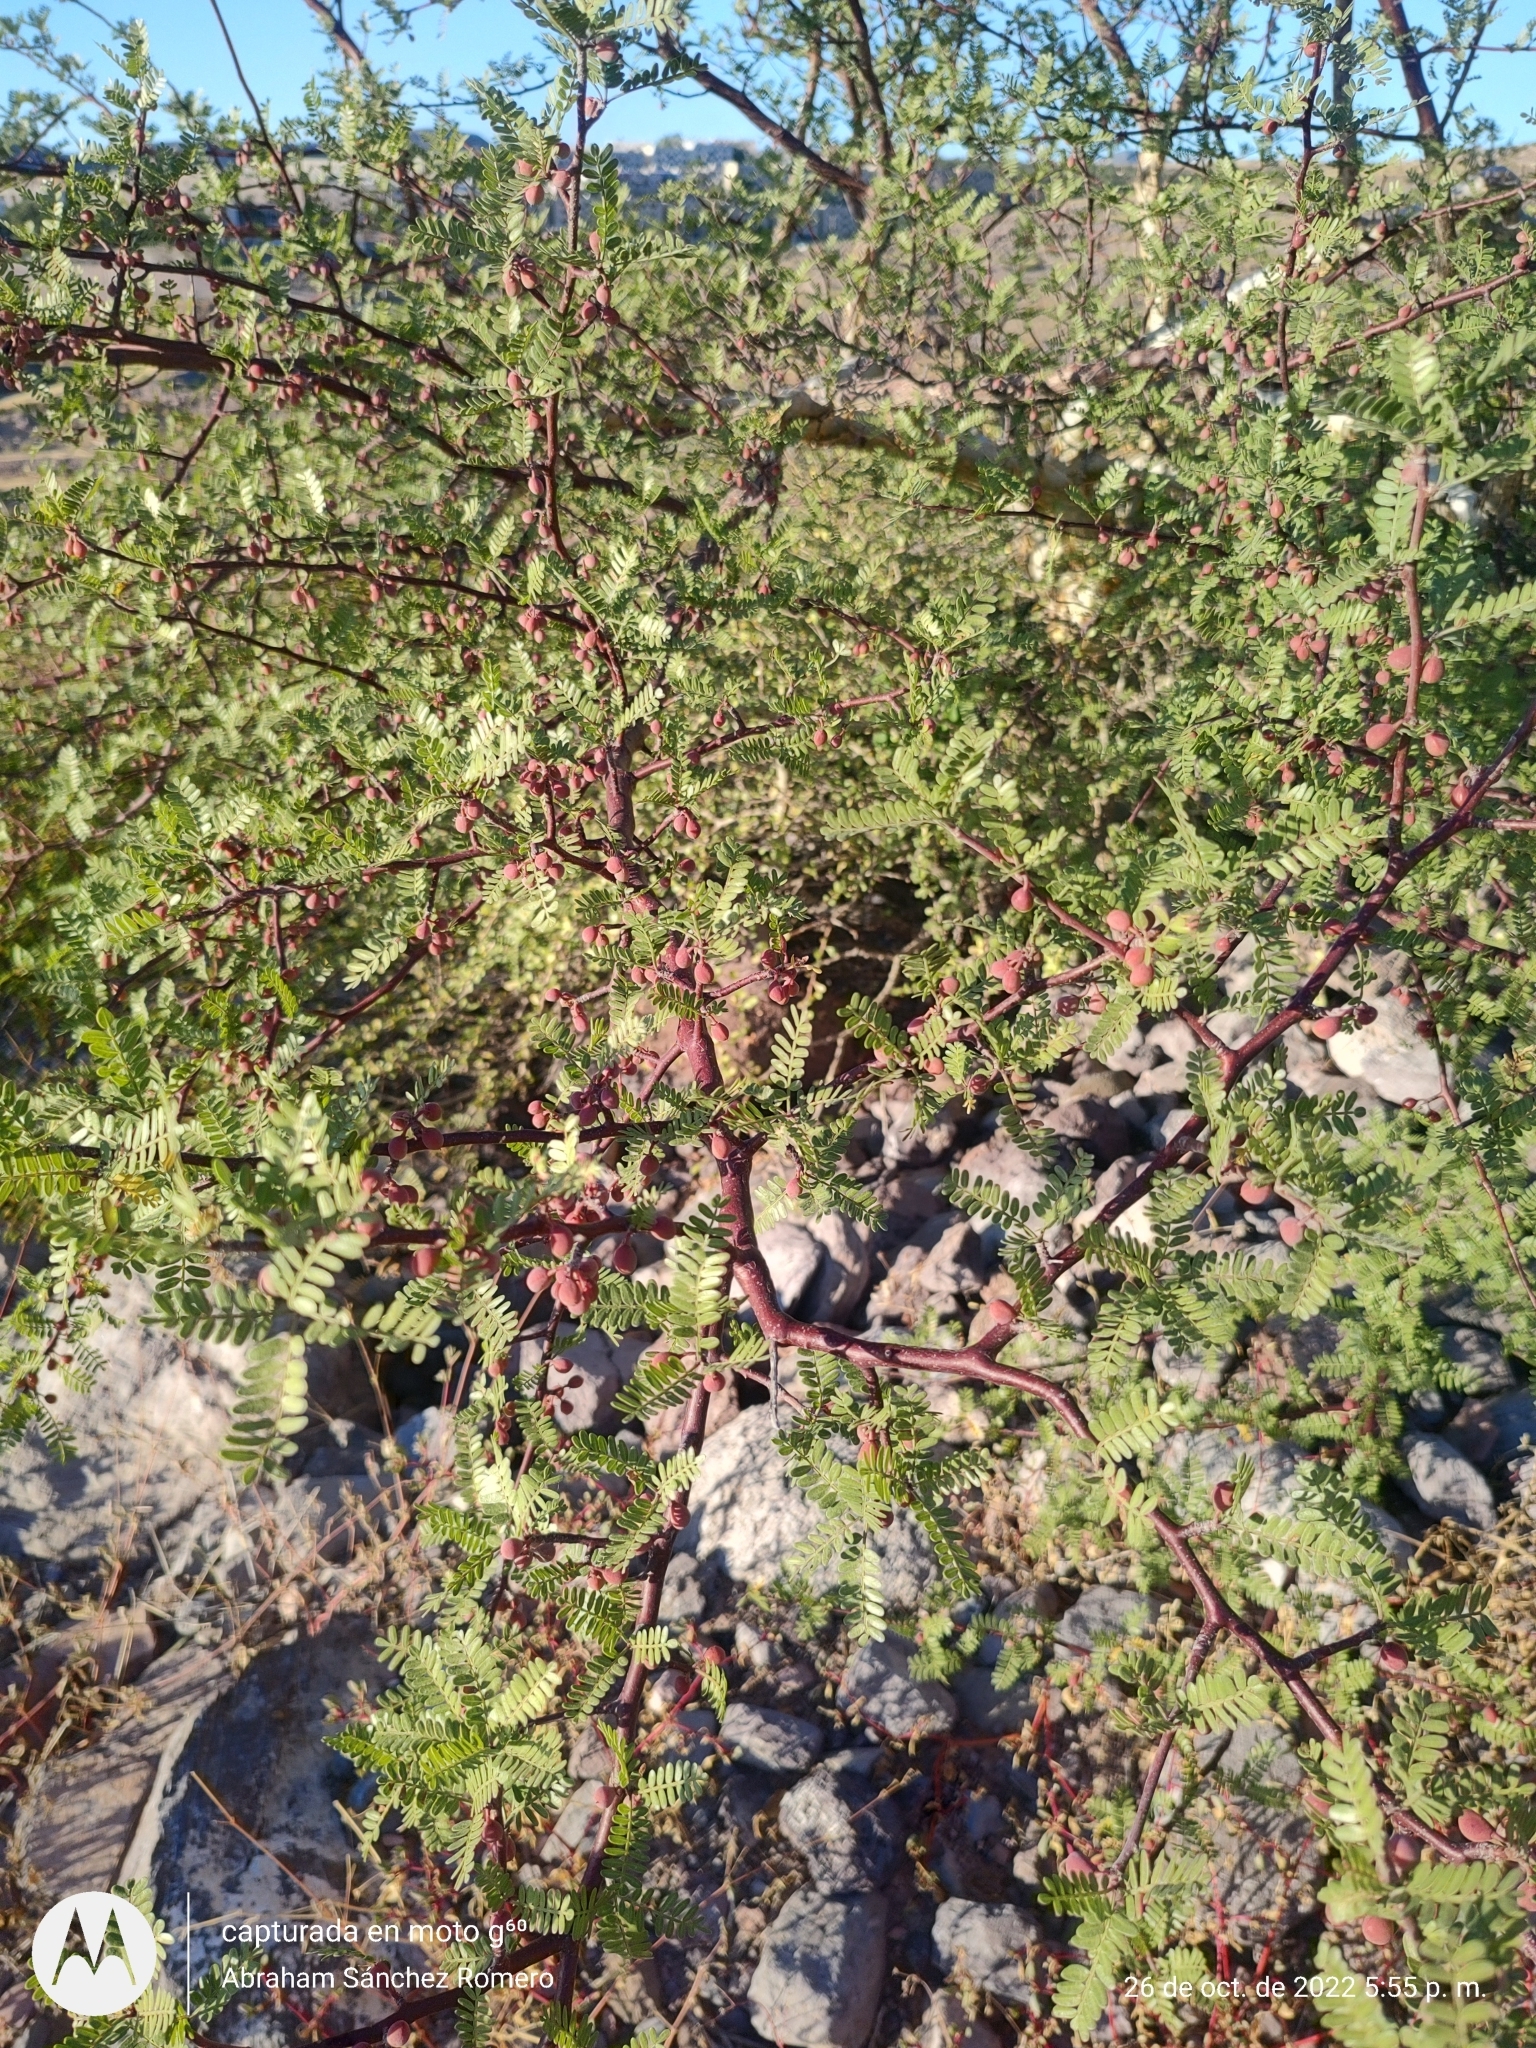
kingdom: Plantae
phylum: Tracheophyta
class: Magnoliopsida
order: Sapindales
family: Burseraceae
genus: Bursera
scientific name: Bursera microphylla
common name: Elephant tree
